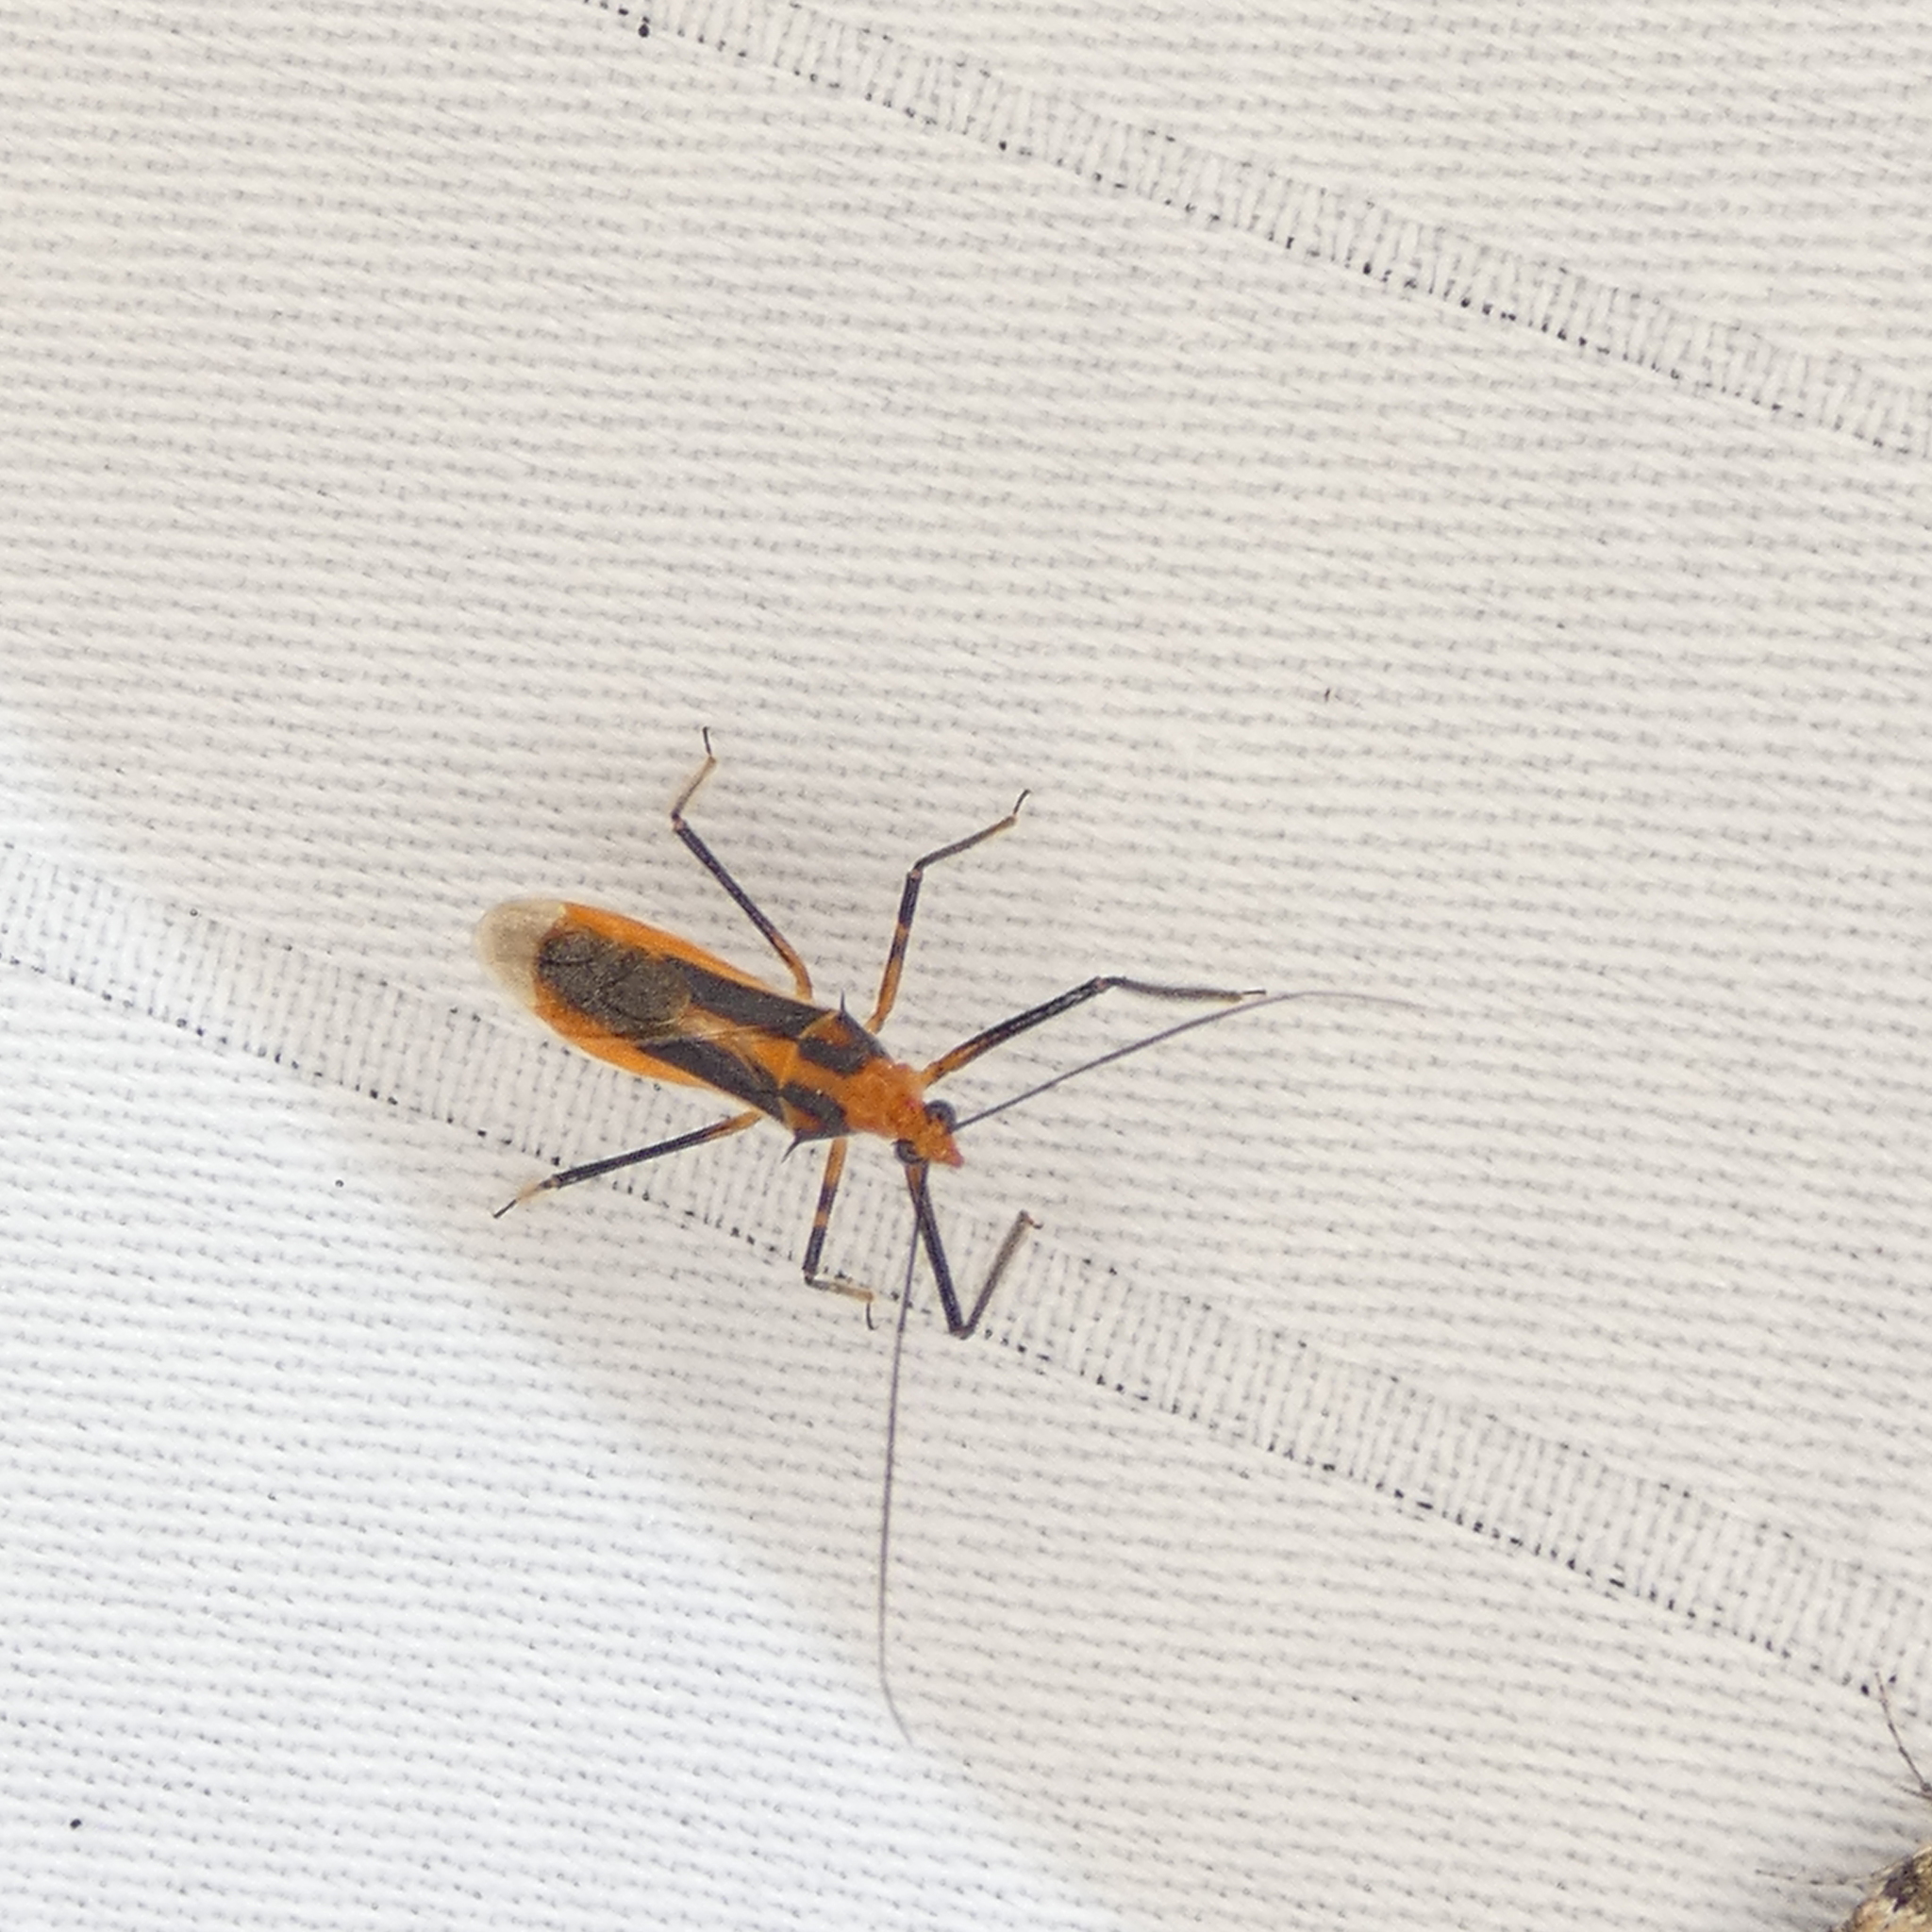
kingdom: Animalia
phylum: Arthropoda
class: Insecta
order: Hemiptera
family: Reduviidae
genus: Repipta
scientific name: Repipta taurus
